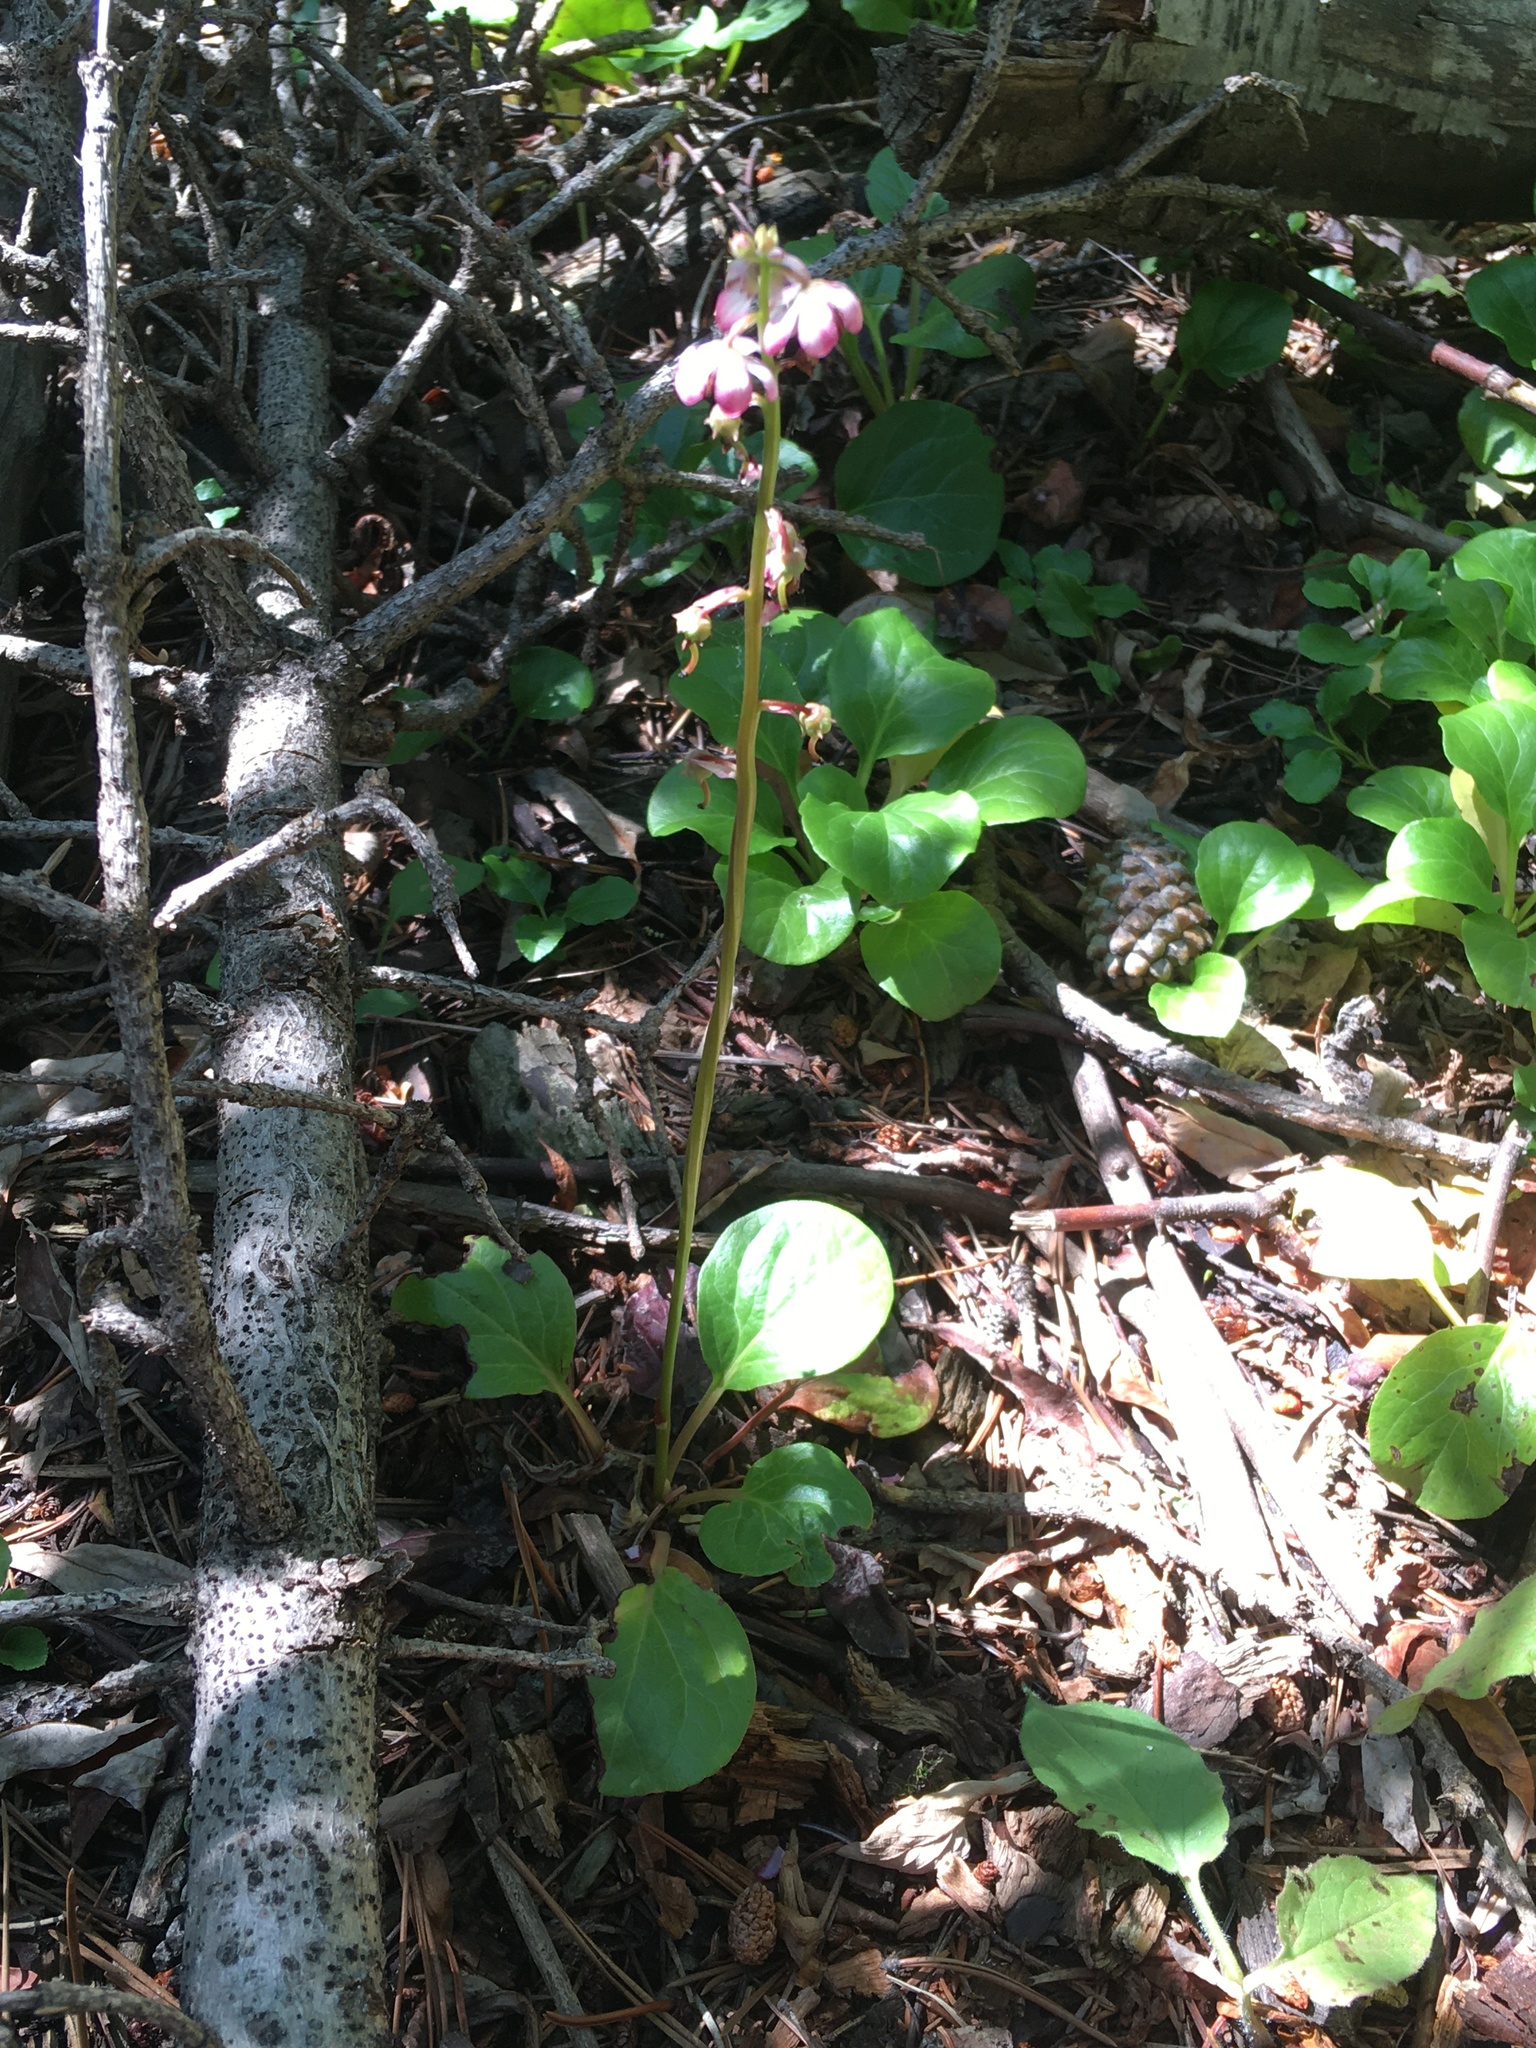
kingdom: Plantae
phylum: Tracheophyta
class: Magnoliopsida
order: Ericales
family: Ericaceae
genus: Pyrola
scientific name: Pyrola asarifolia
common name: Bog wintergreen
